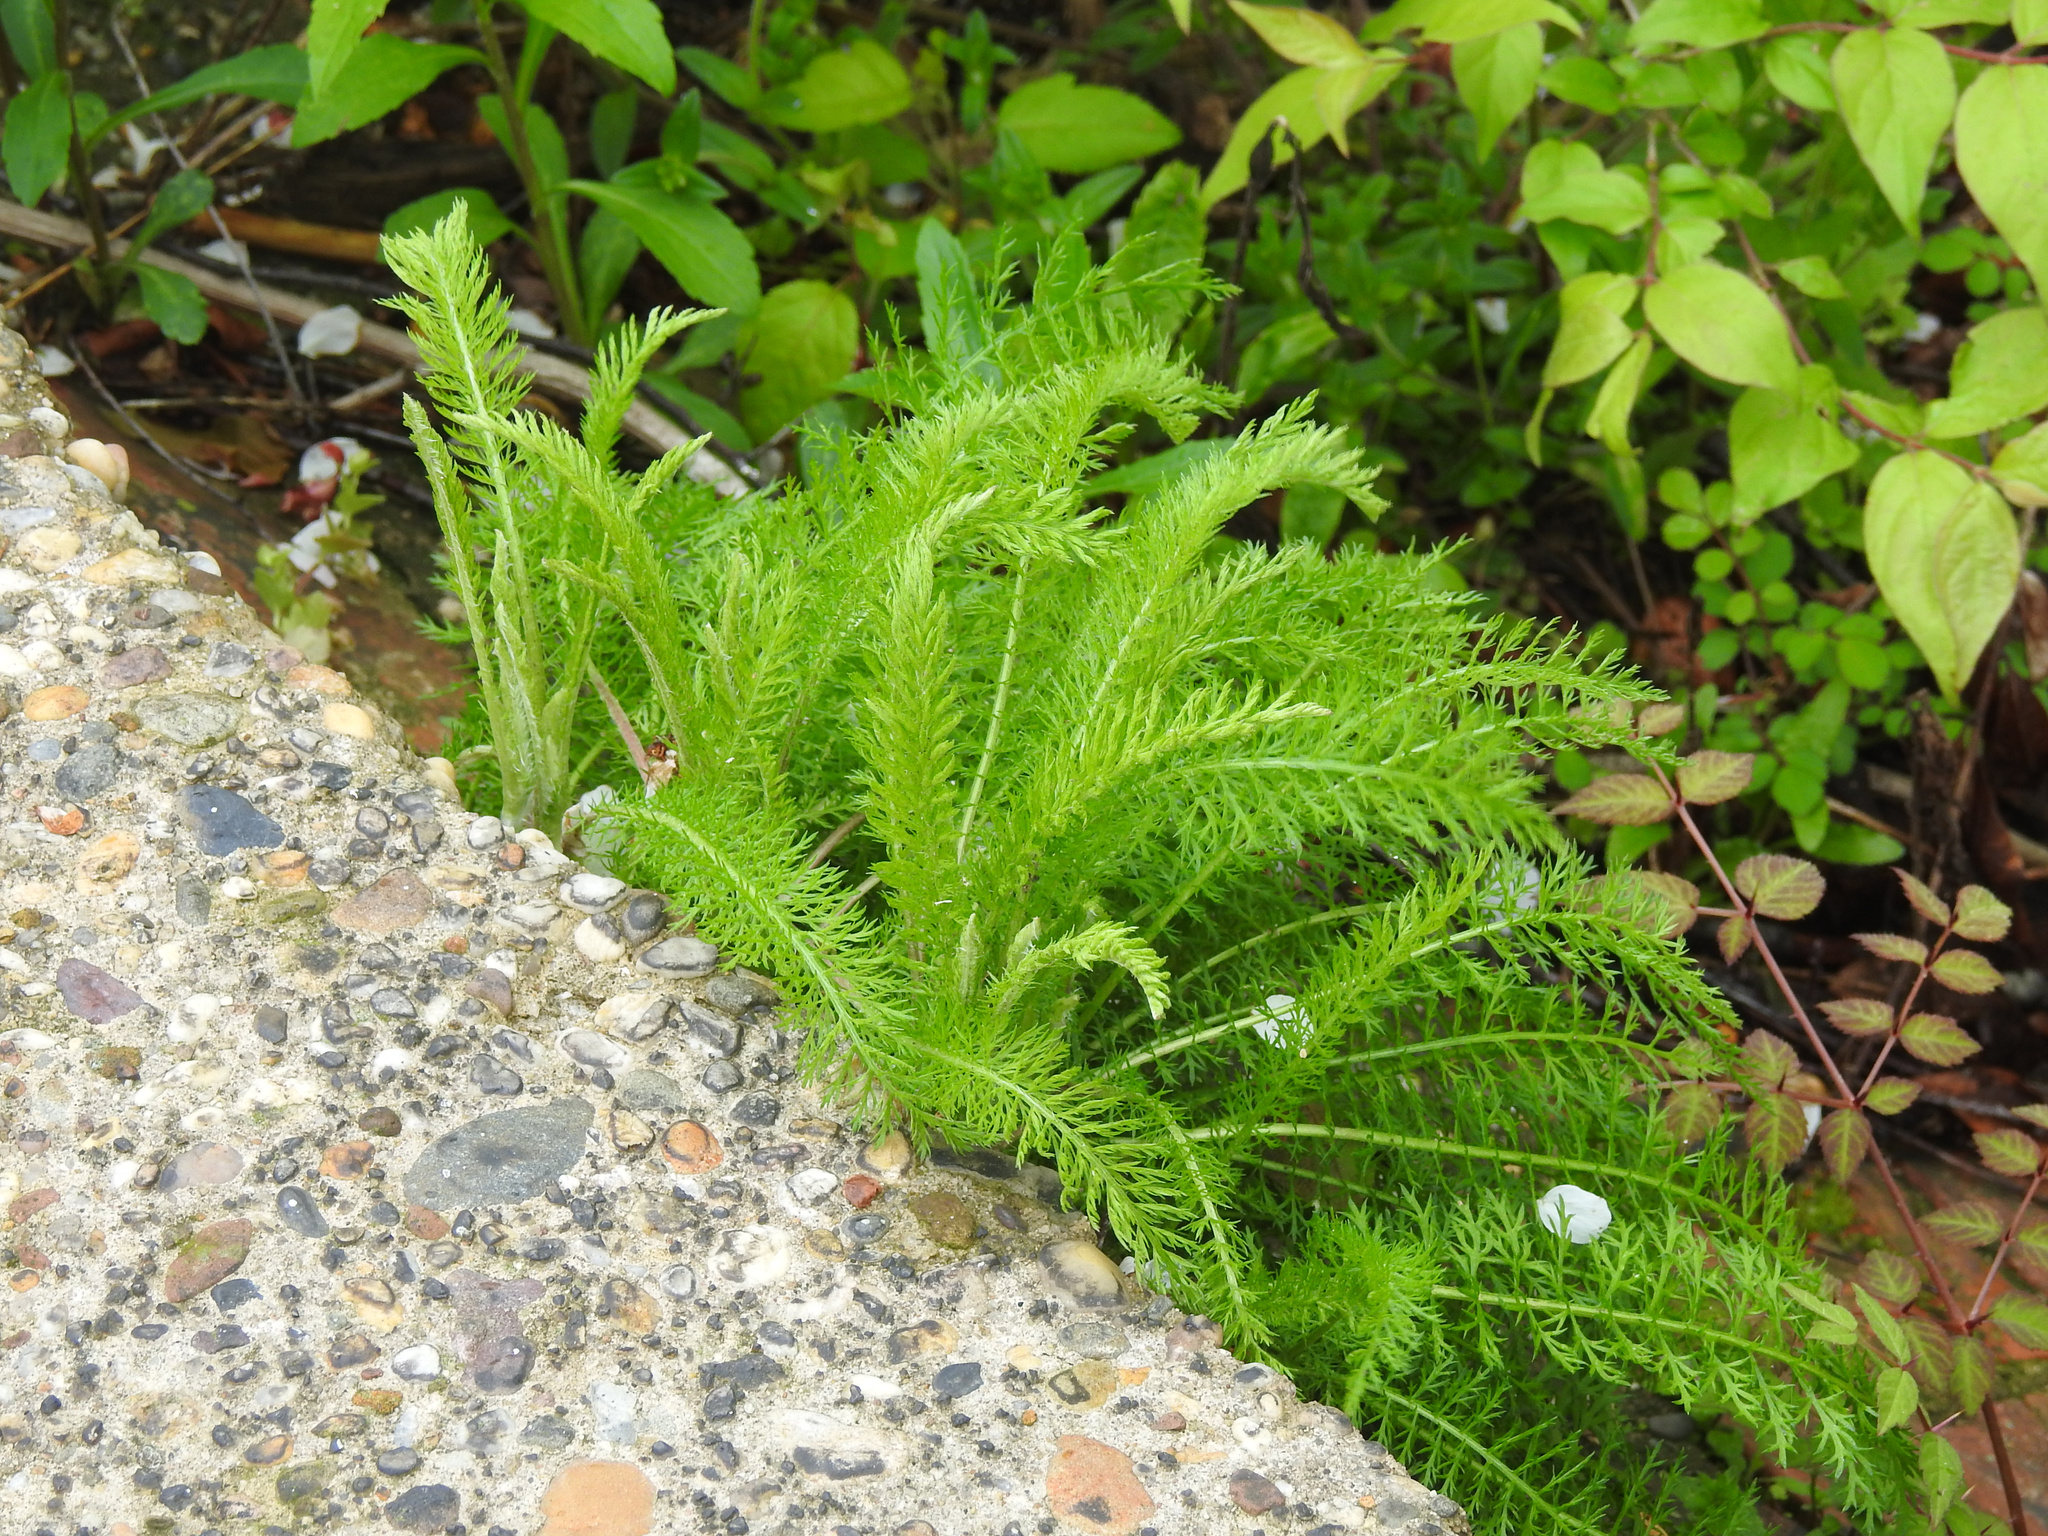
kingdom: Plantae
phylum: Tracheophyta
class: Magnoliopsida
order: Asterales
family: Asteraceae
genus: Achillea
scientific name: Achillea millefolium
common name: Yarrow
